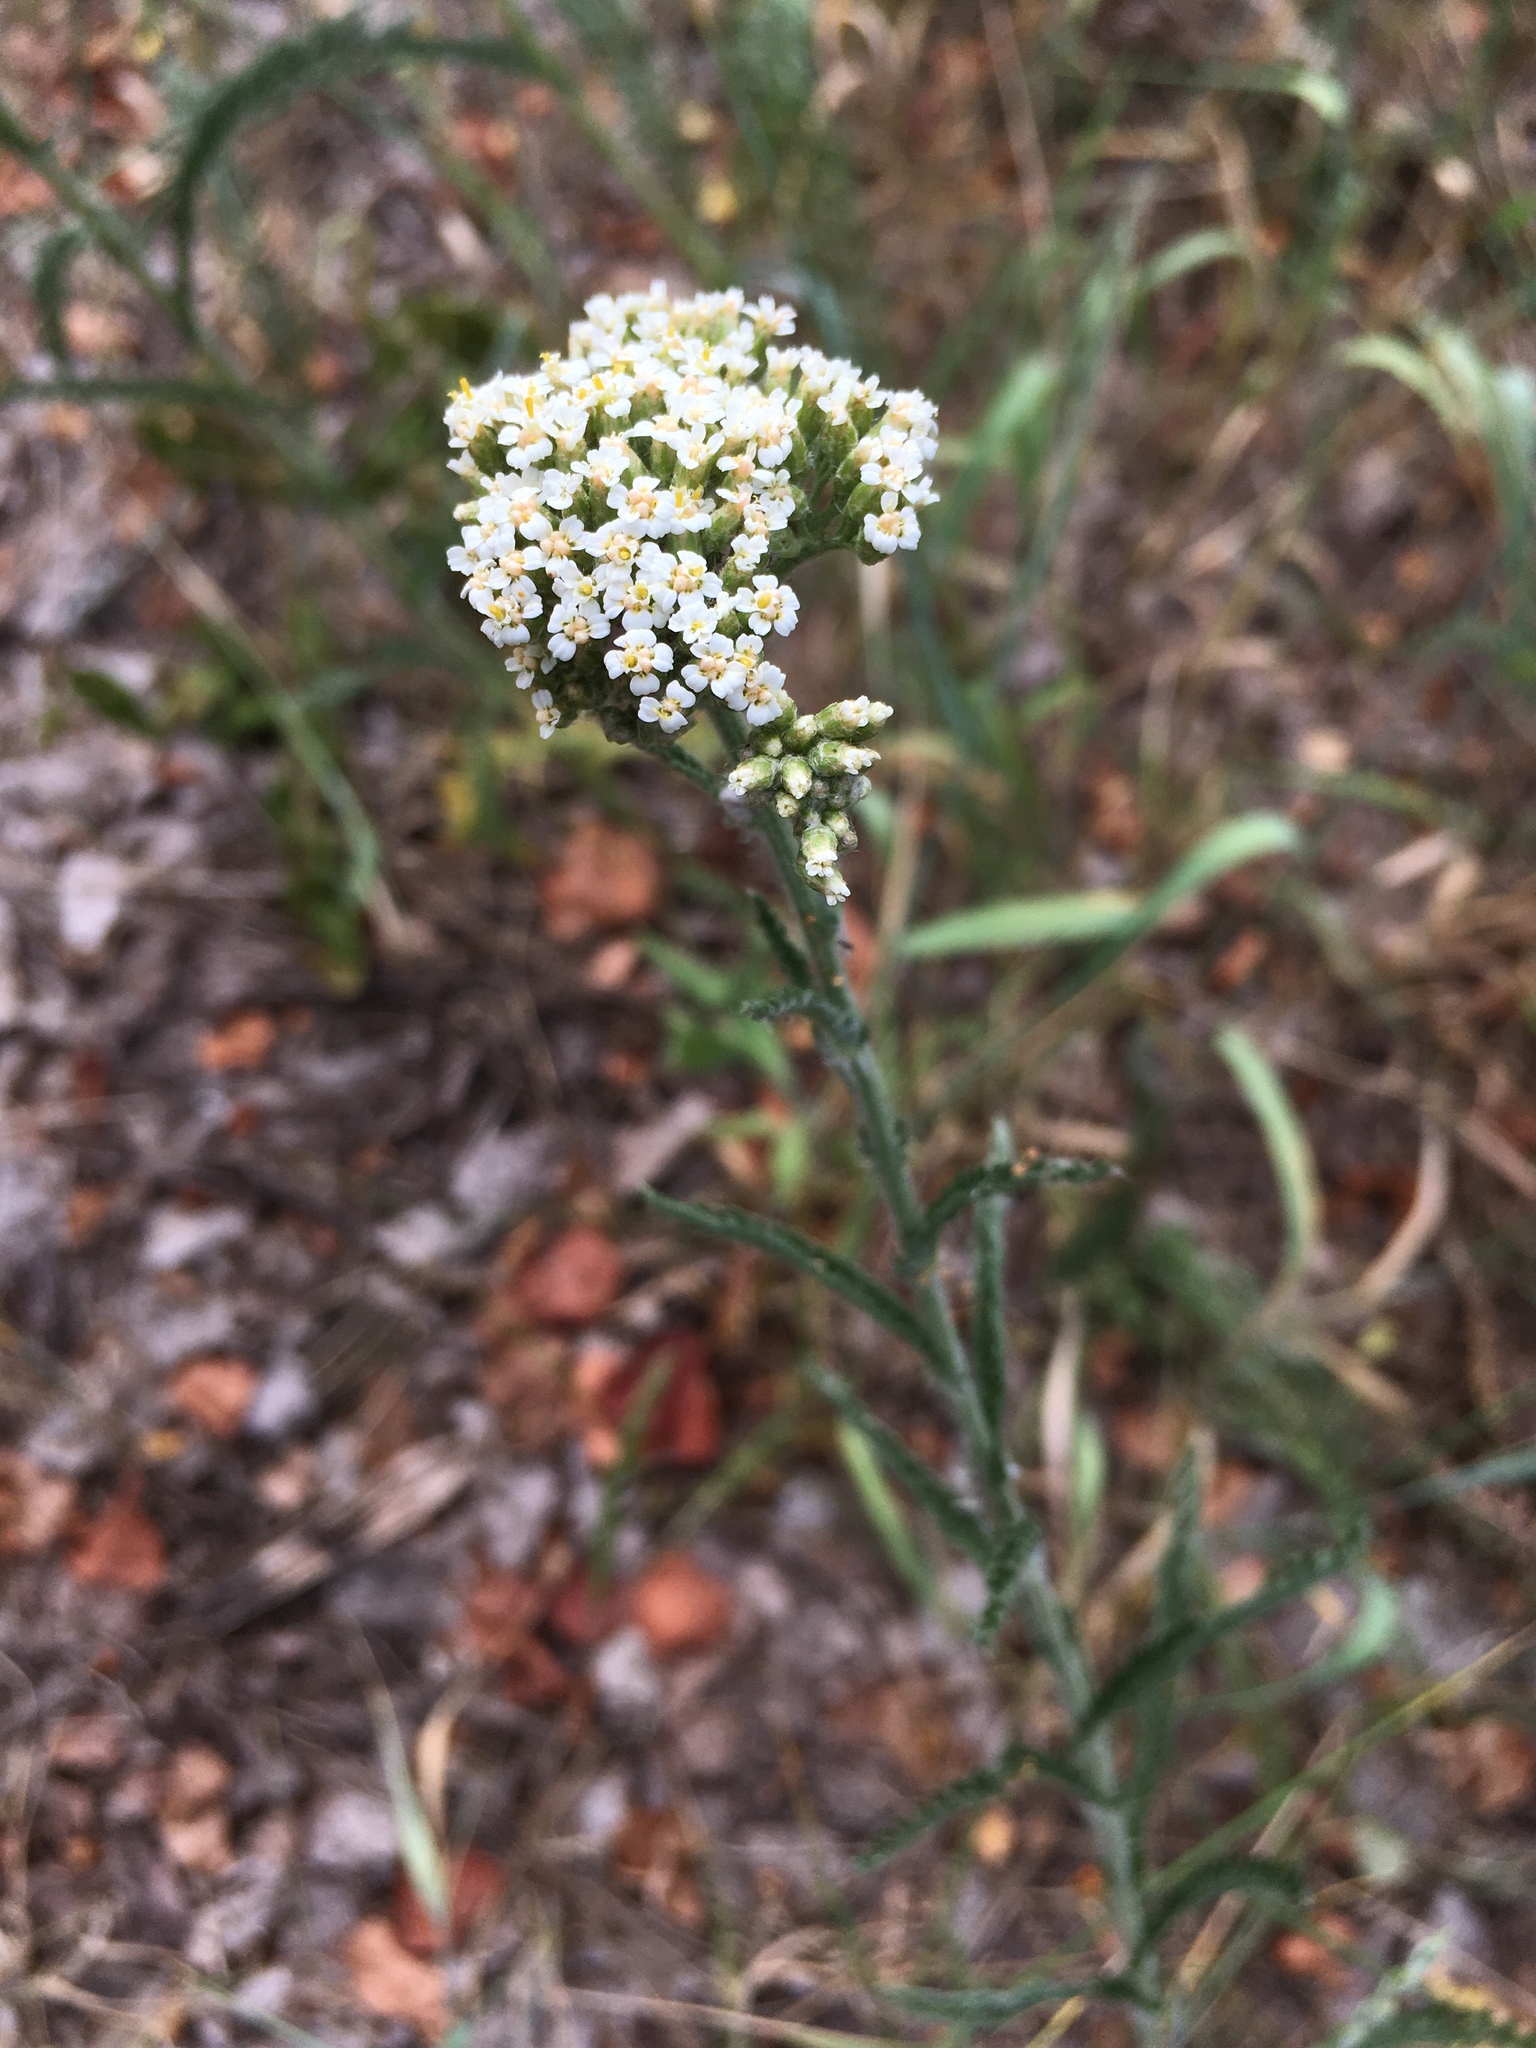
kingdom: Plantae
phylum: Tracheophyta
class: Magnoliopsida
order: Asterales
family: Asteraceae
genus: Achillea
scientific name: Achillea millefolium
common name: Yarrow
